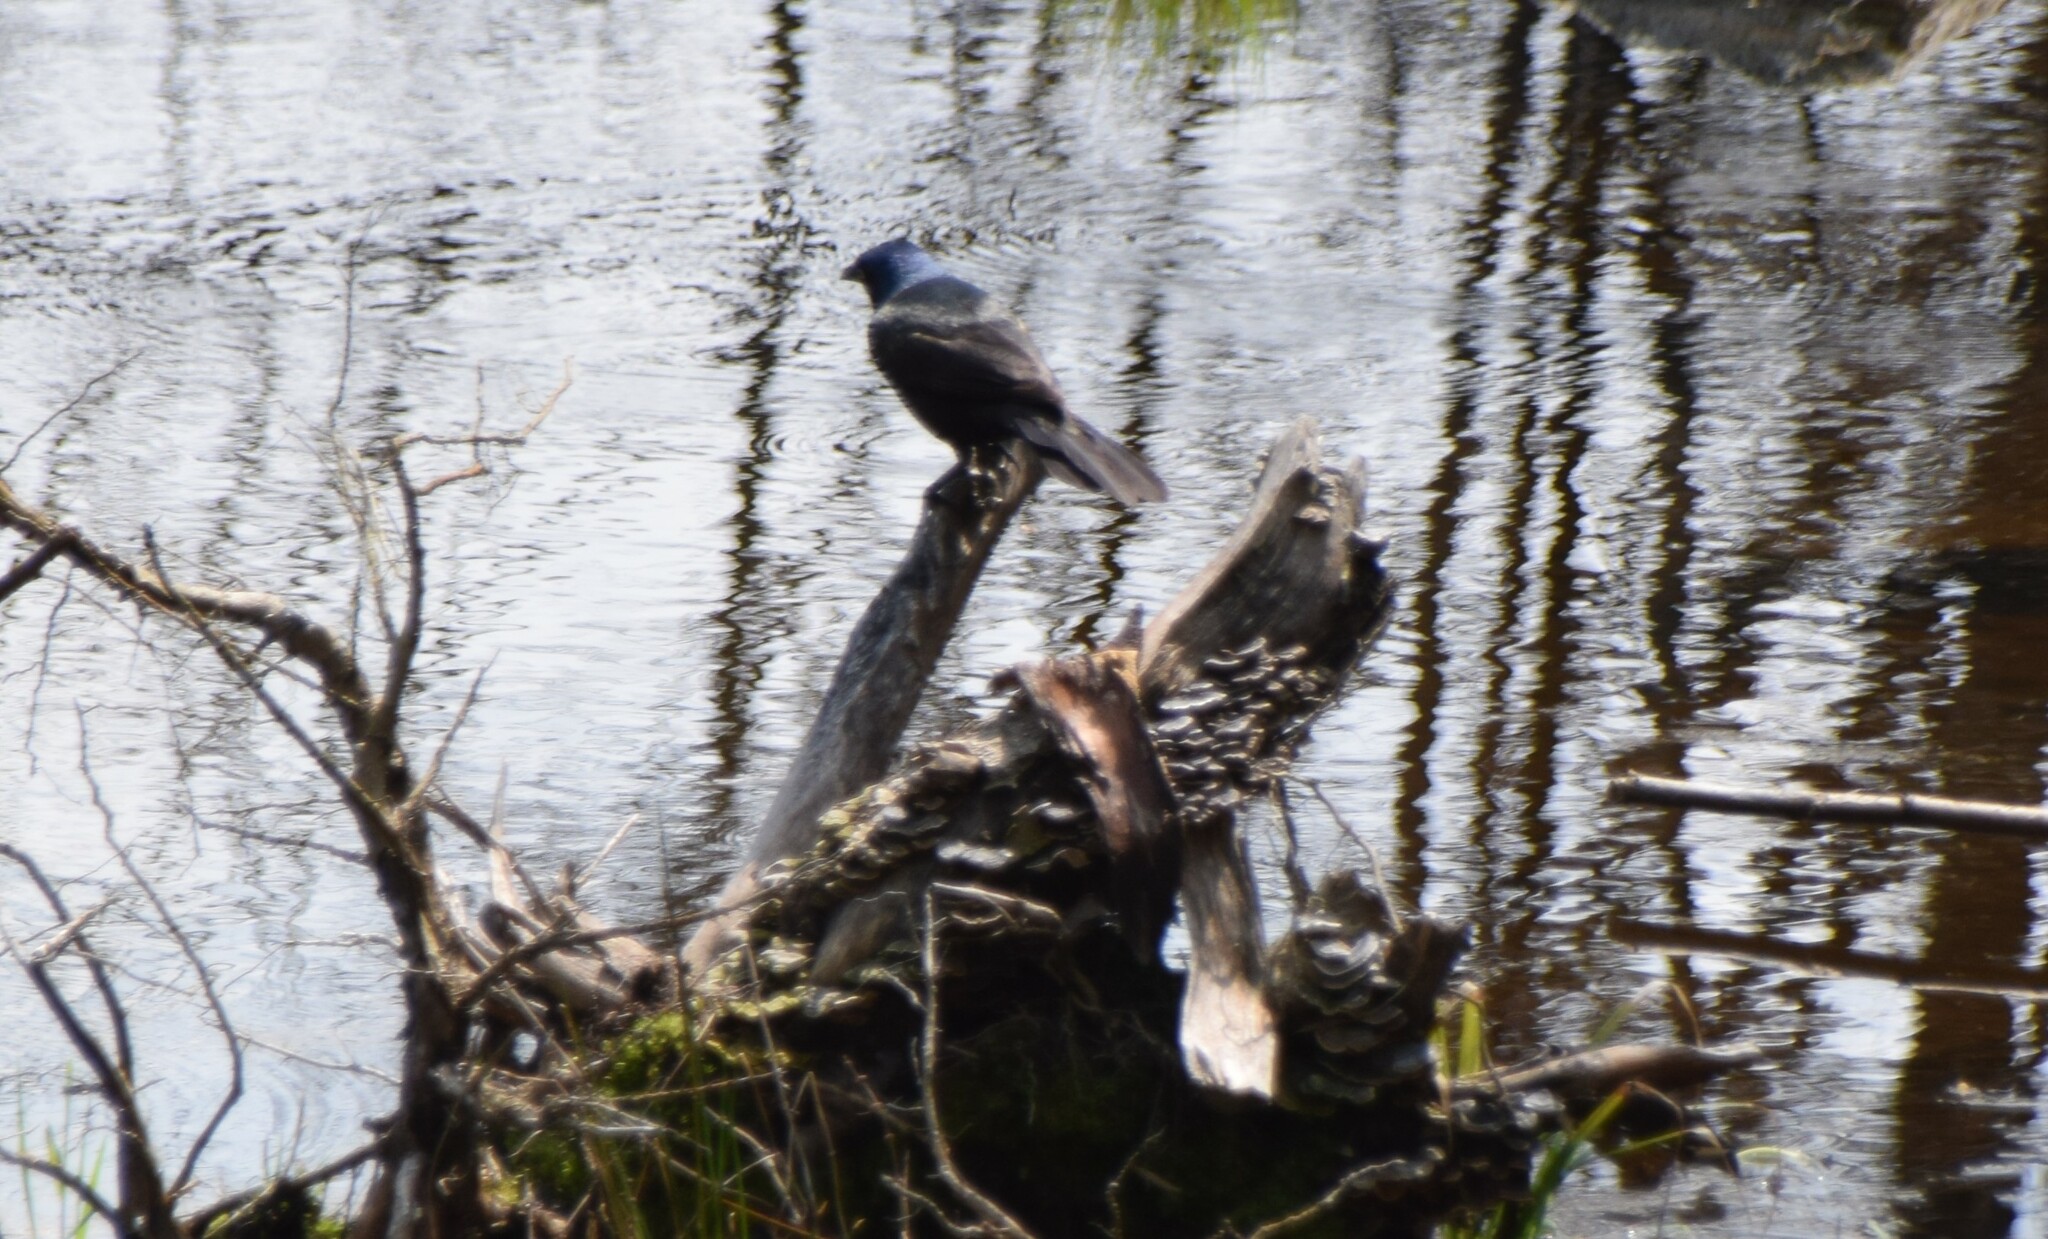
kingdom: Animalia
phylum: Chordata
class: Aves
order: Passeriformes
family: Icteridae
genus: Quiscalus
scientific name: Quiscalus quiscula
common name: Common grackle
